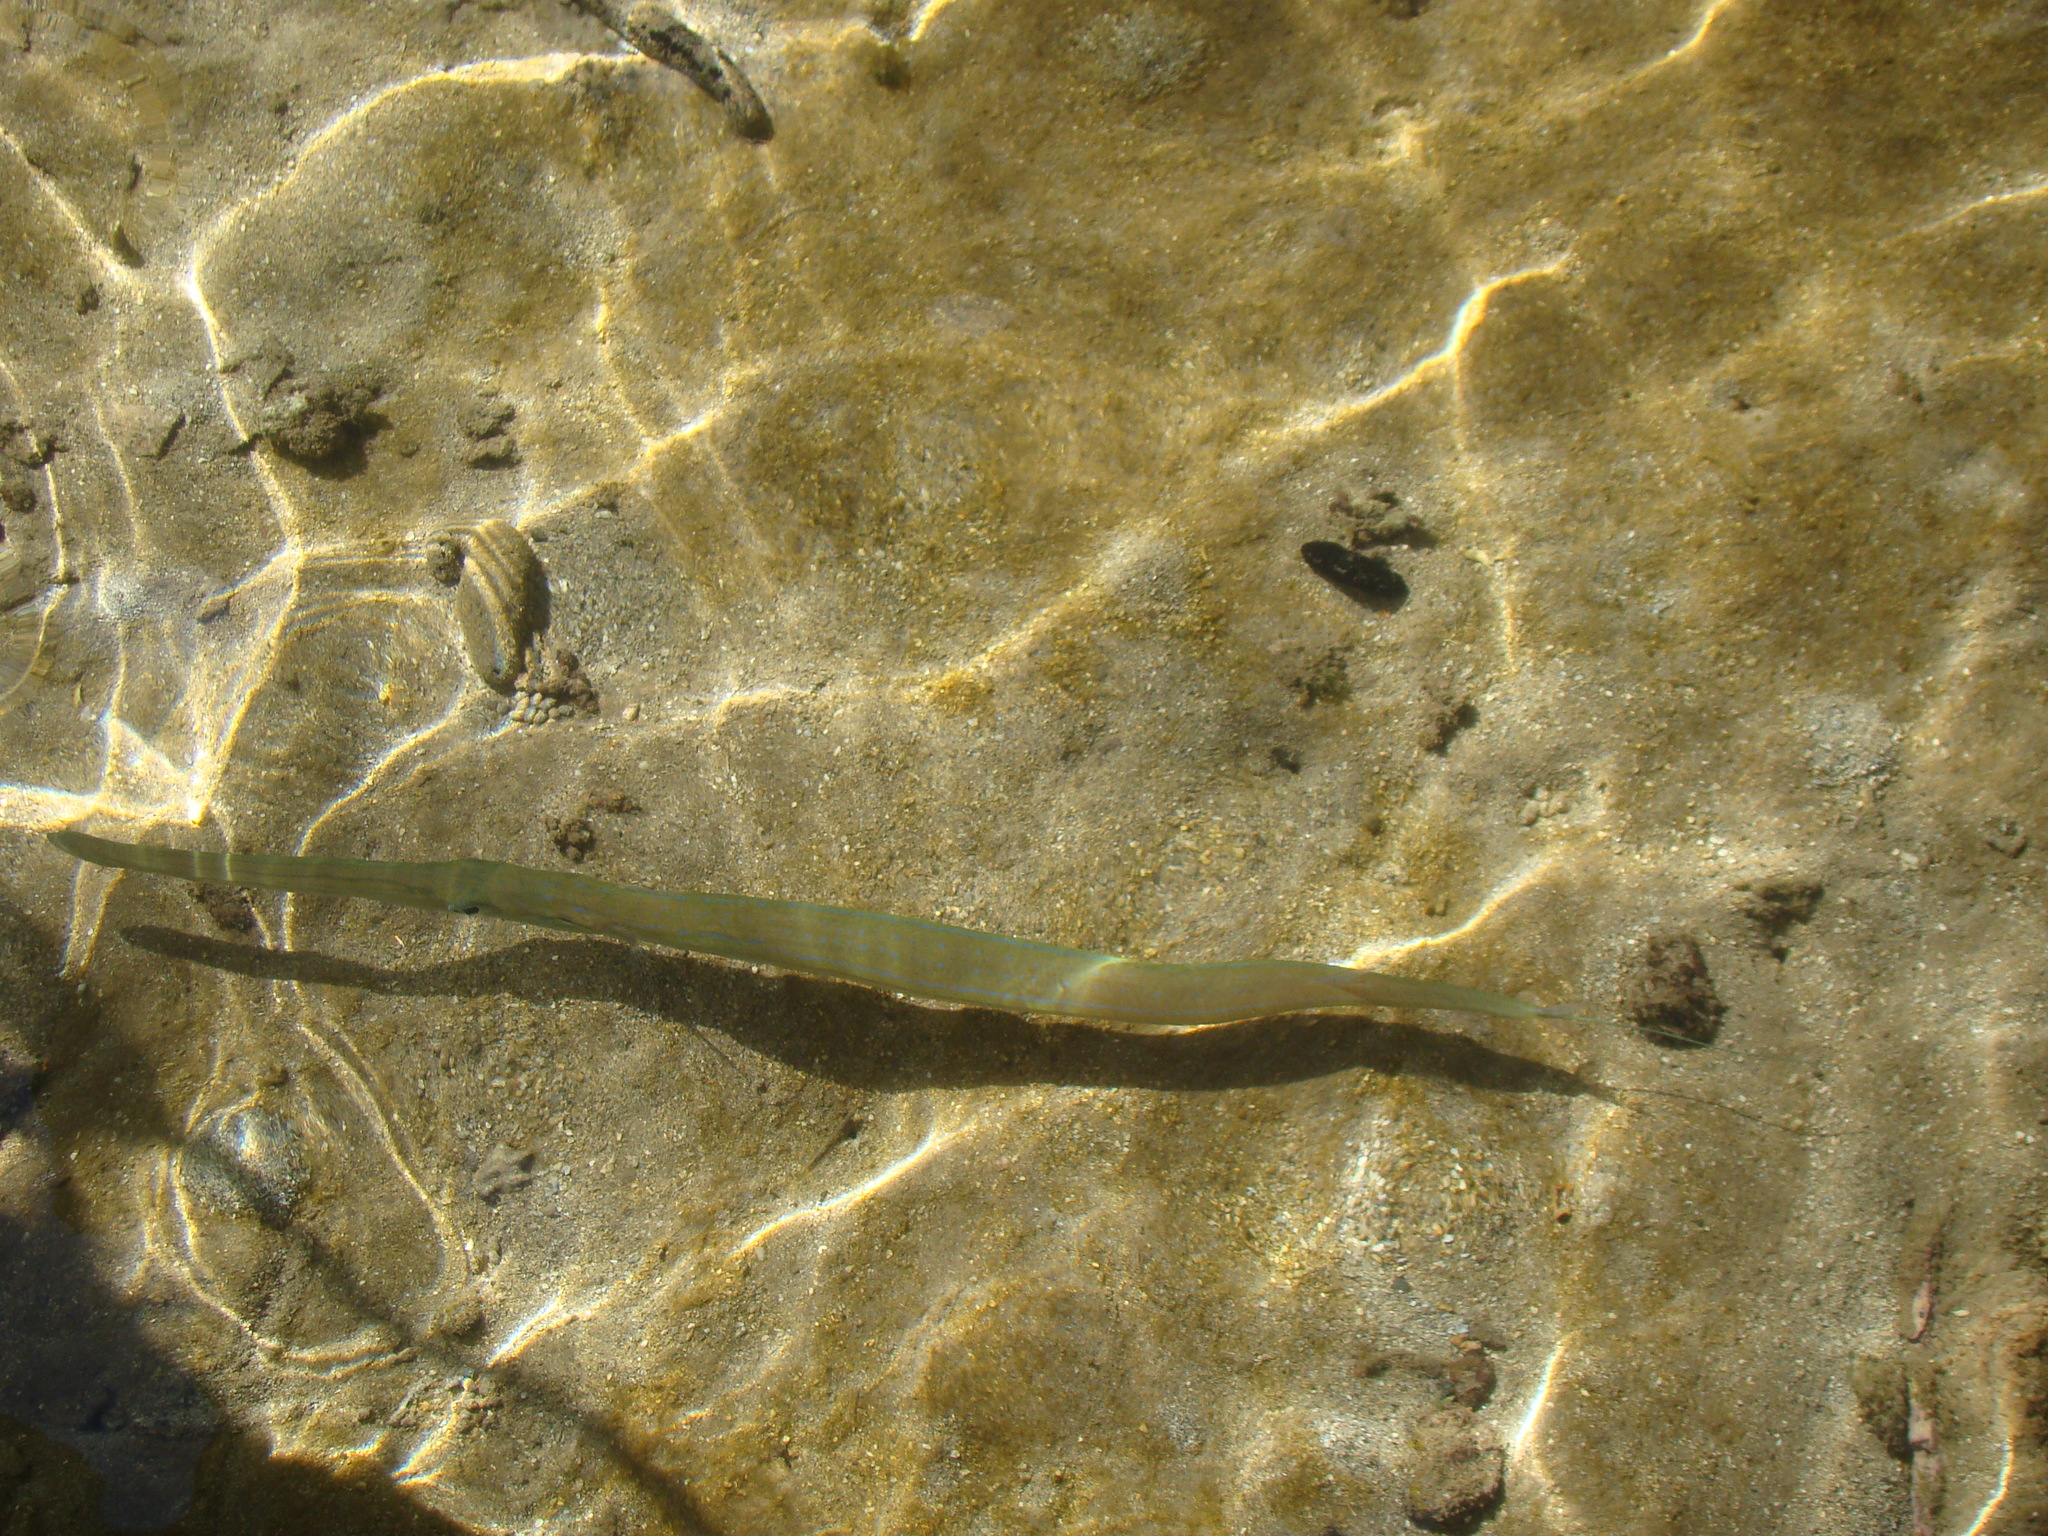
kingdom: Animalia
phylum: Chordata
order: Syngnathiformes
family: Fistulariidae
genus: Fistularia
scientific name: Fistularia commersonii
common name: Bluespotted cornetfish
